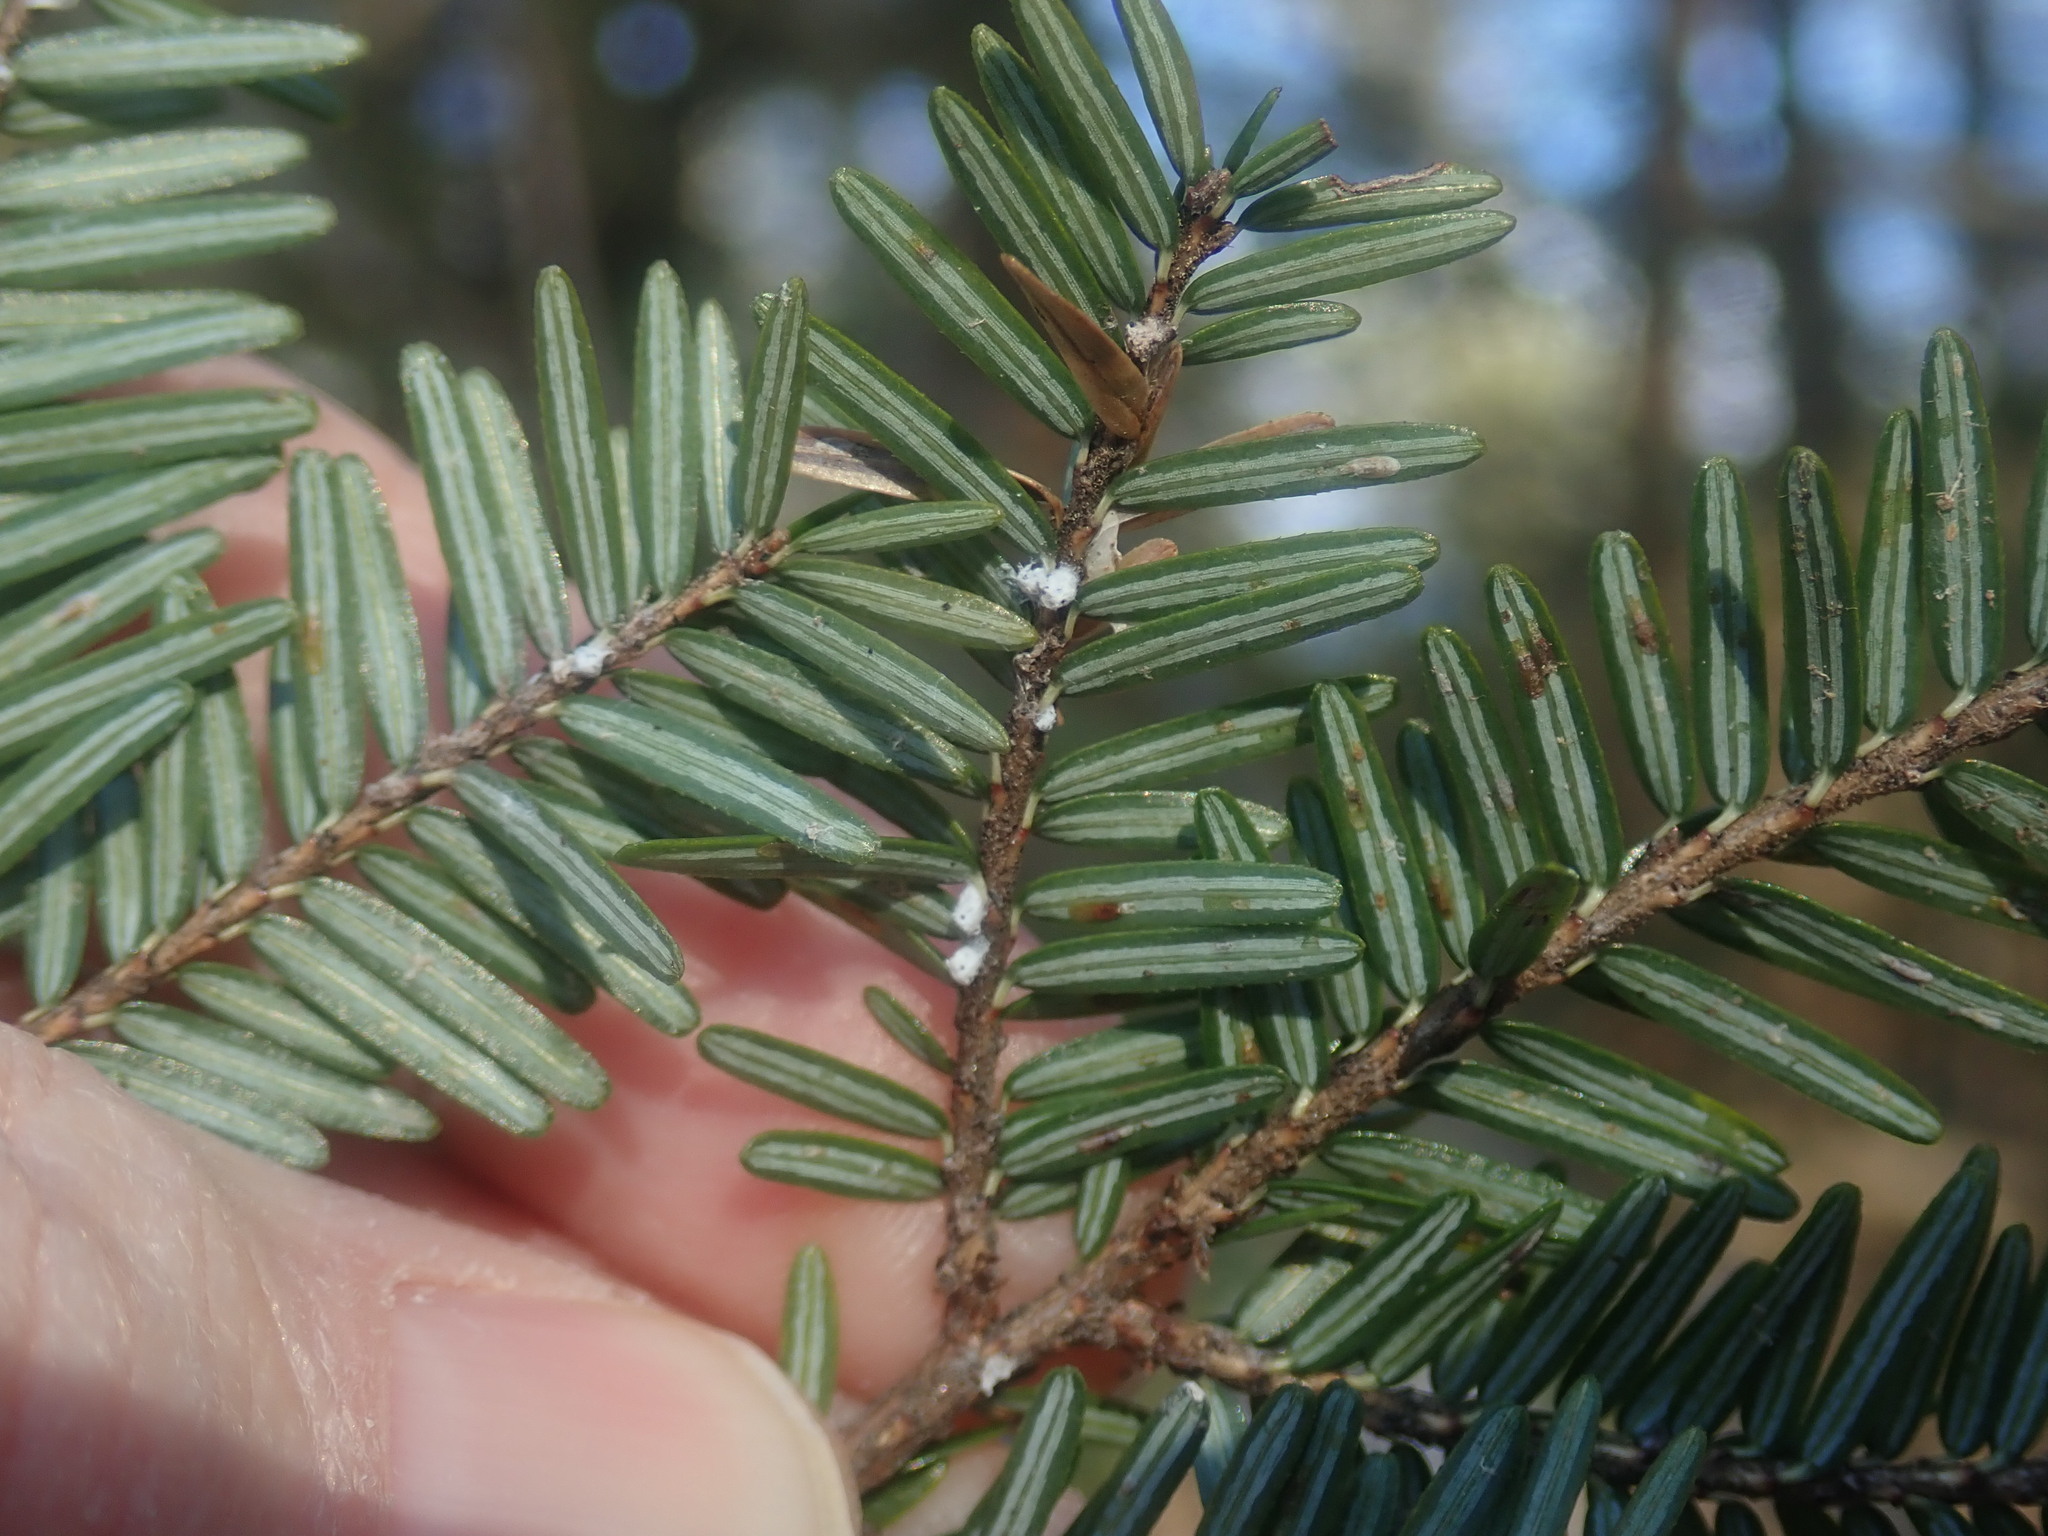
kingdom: Animalia
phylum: Arthropoda
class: Insecta
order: Hemiptera
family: Adelgidae
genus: Adelges
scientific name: Adelges tsugae
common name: Hemlock woolly adelgid
